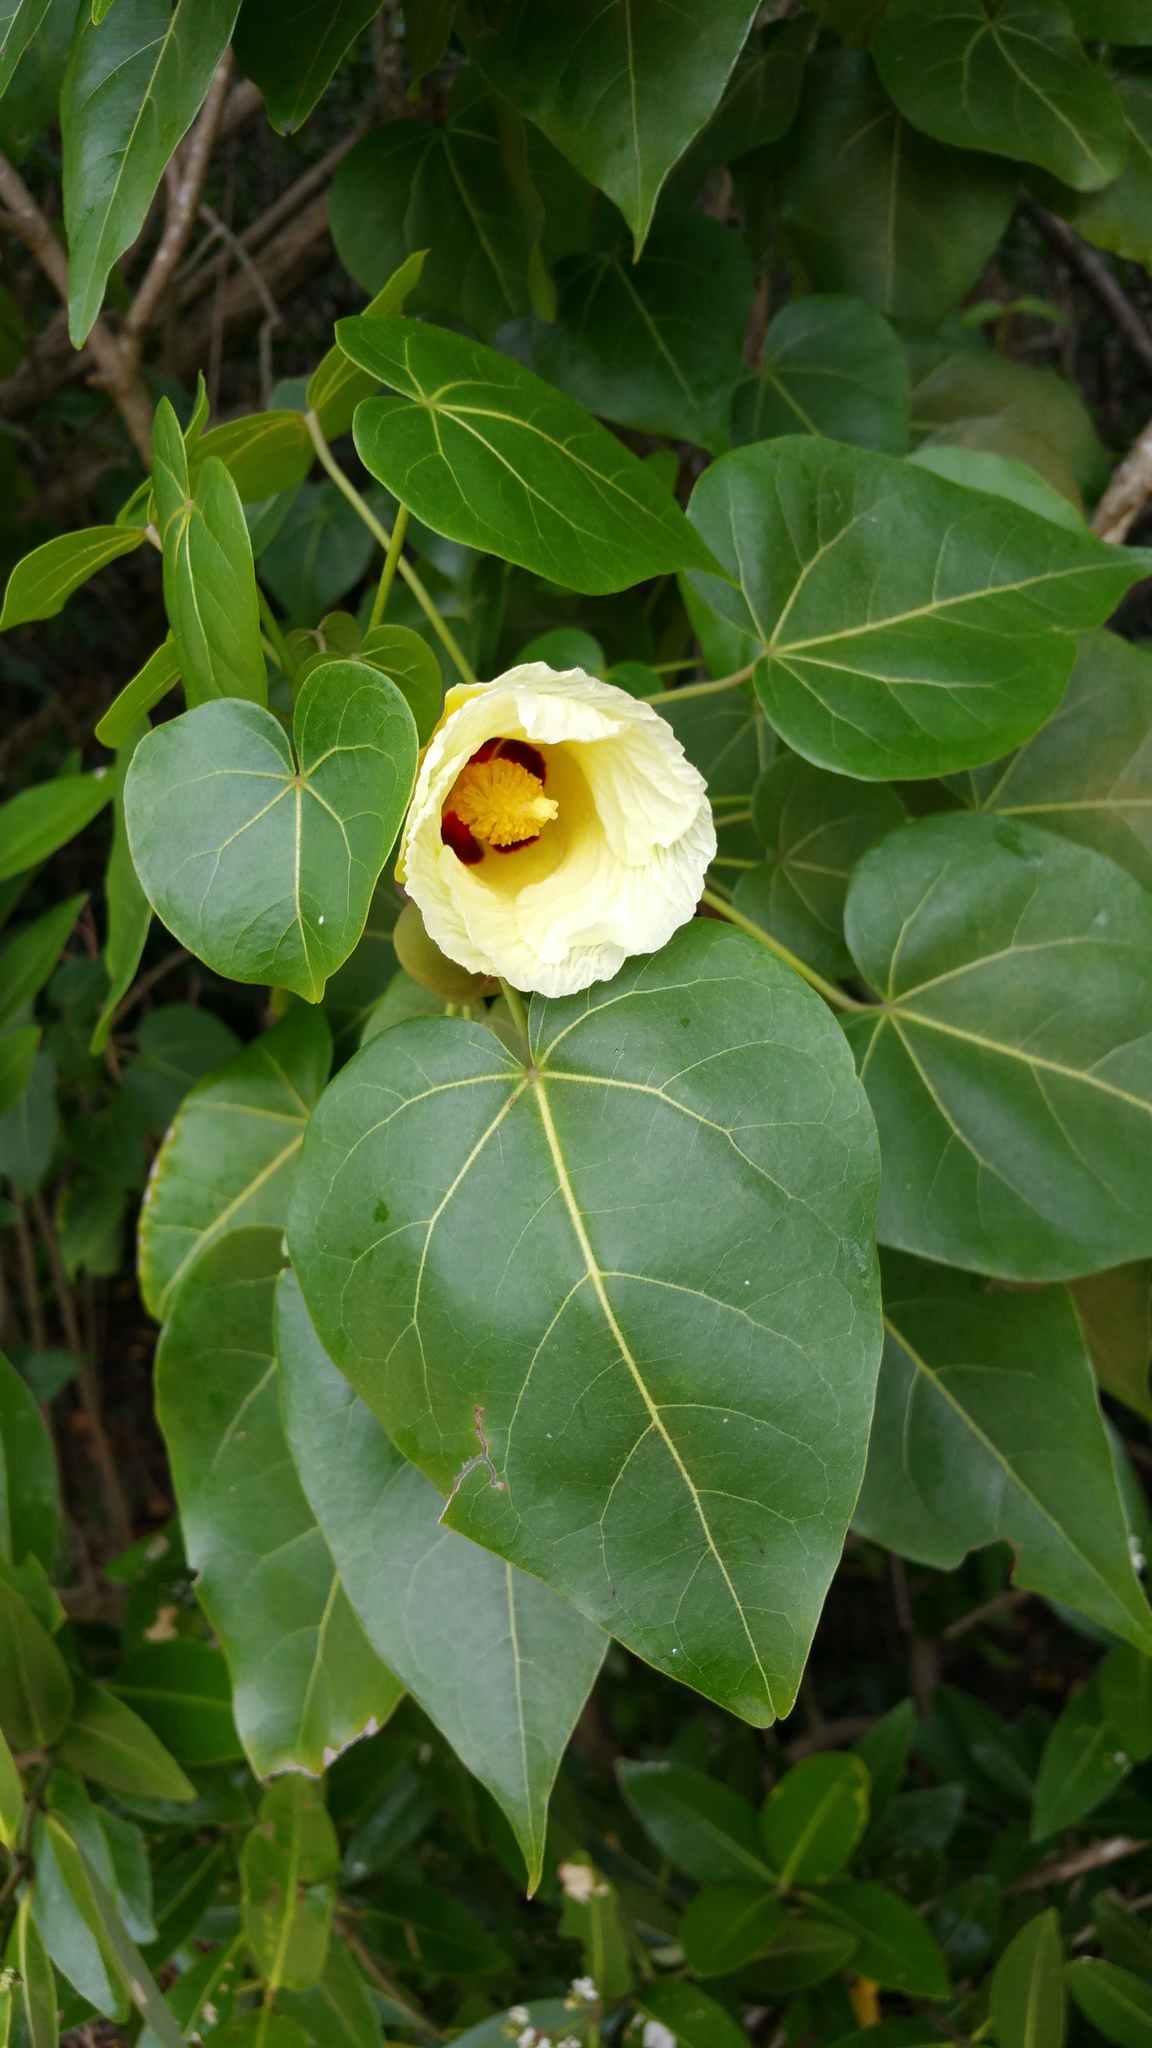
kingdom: Plantae
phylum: Tracheophyta
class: Magnoliopsida
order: Malvales
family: Malvaceae
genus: Thespesia
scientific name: Thespesia populnea
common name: Seaside mahoe
